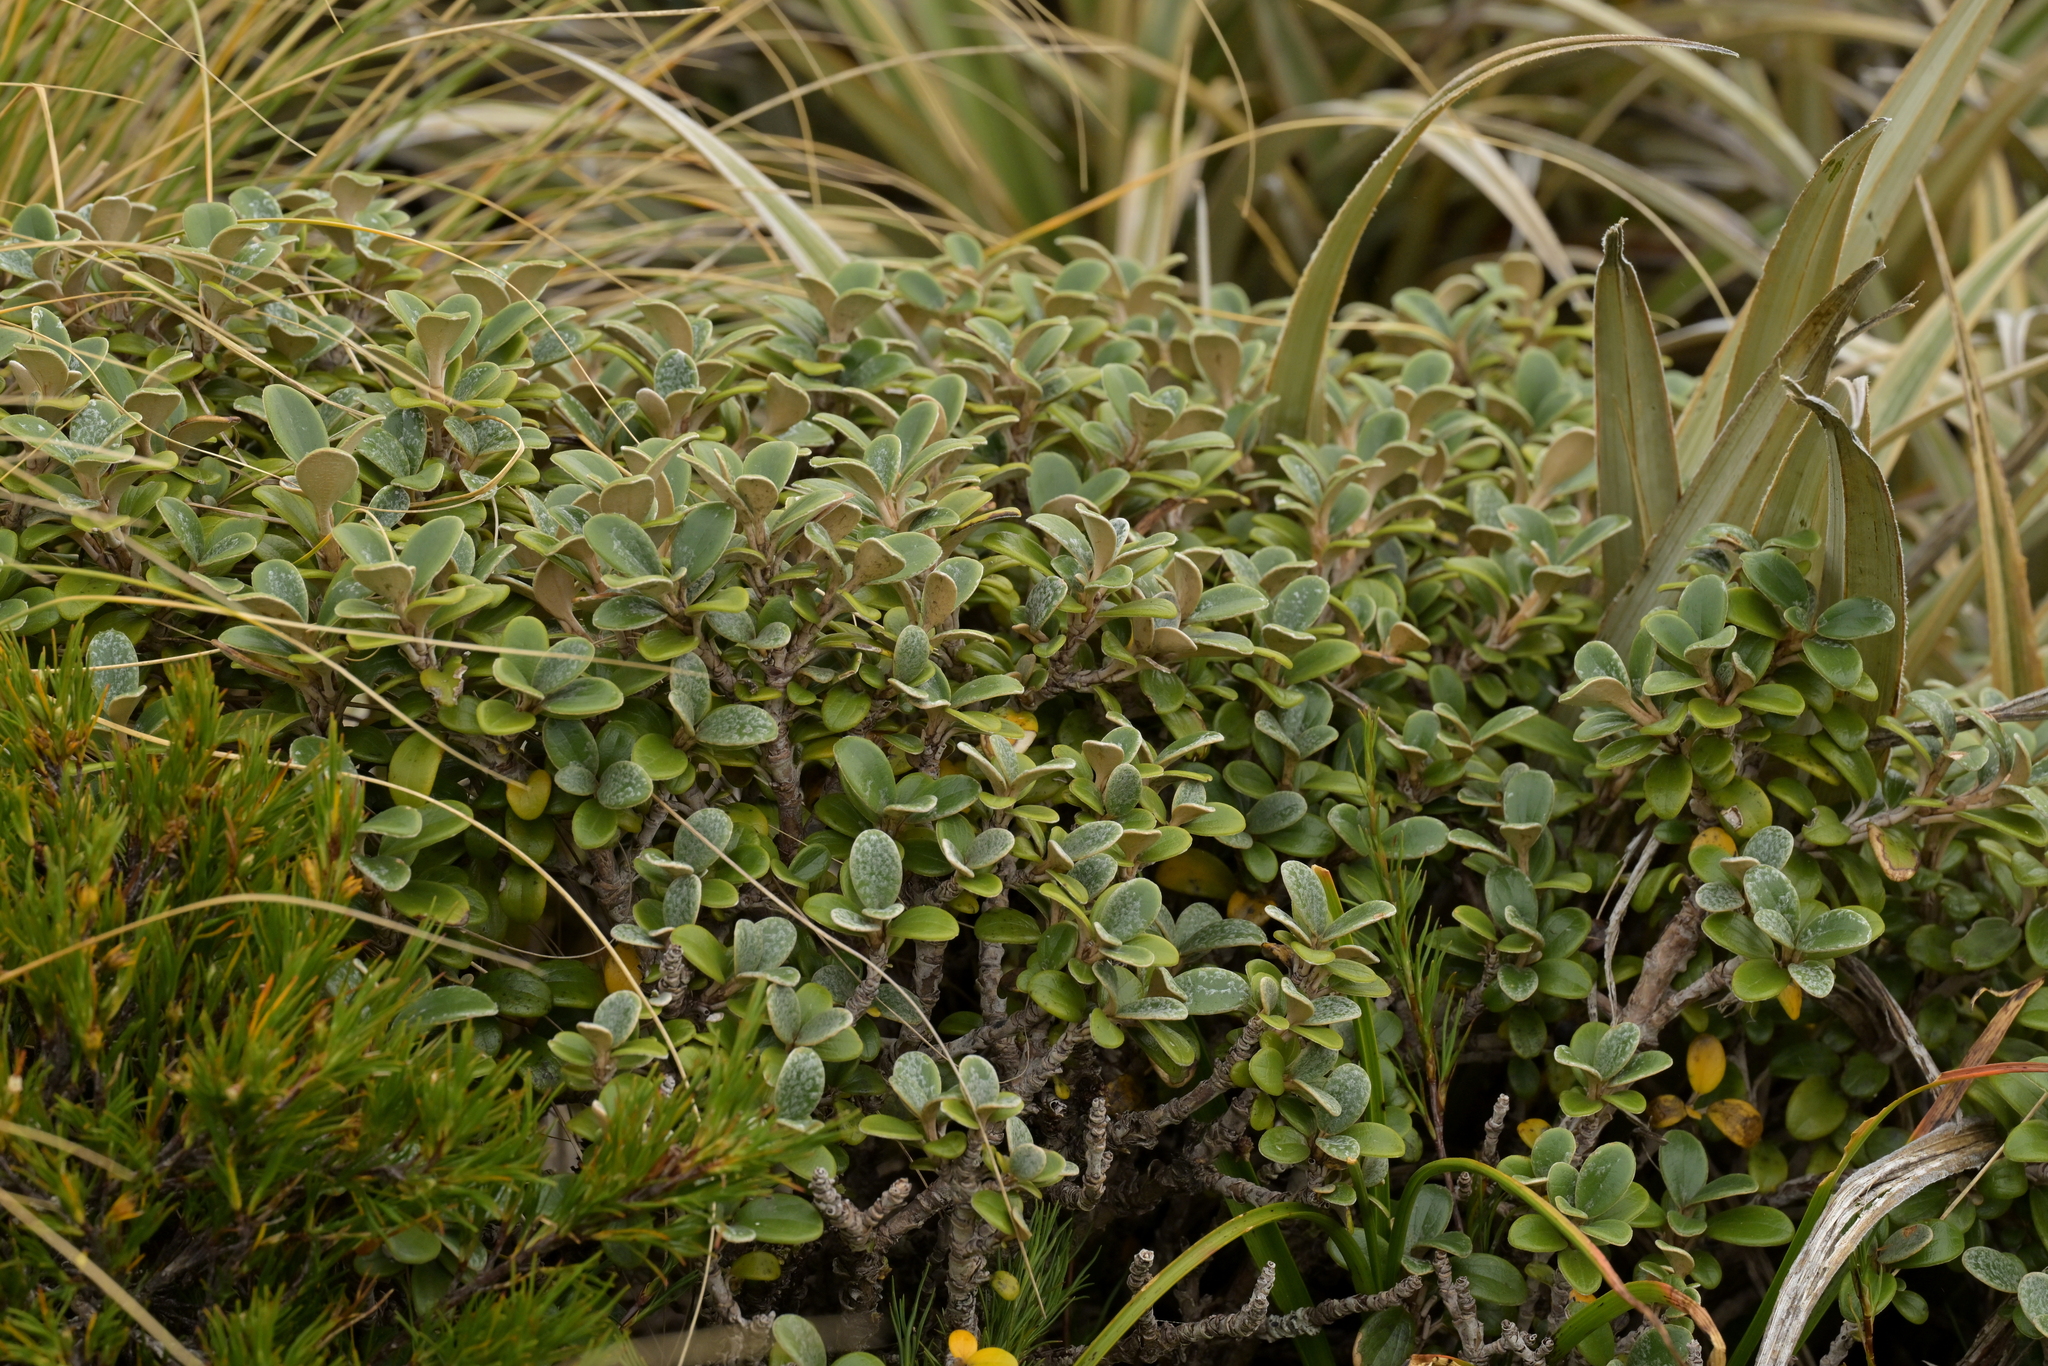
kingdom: Plantae
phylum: Tracheophyta
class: Magnoliopsida
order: Asterales
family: Asteraceae
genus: Brachyglottis
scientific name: Brachyglottis bidwillii
